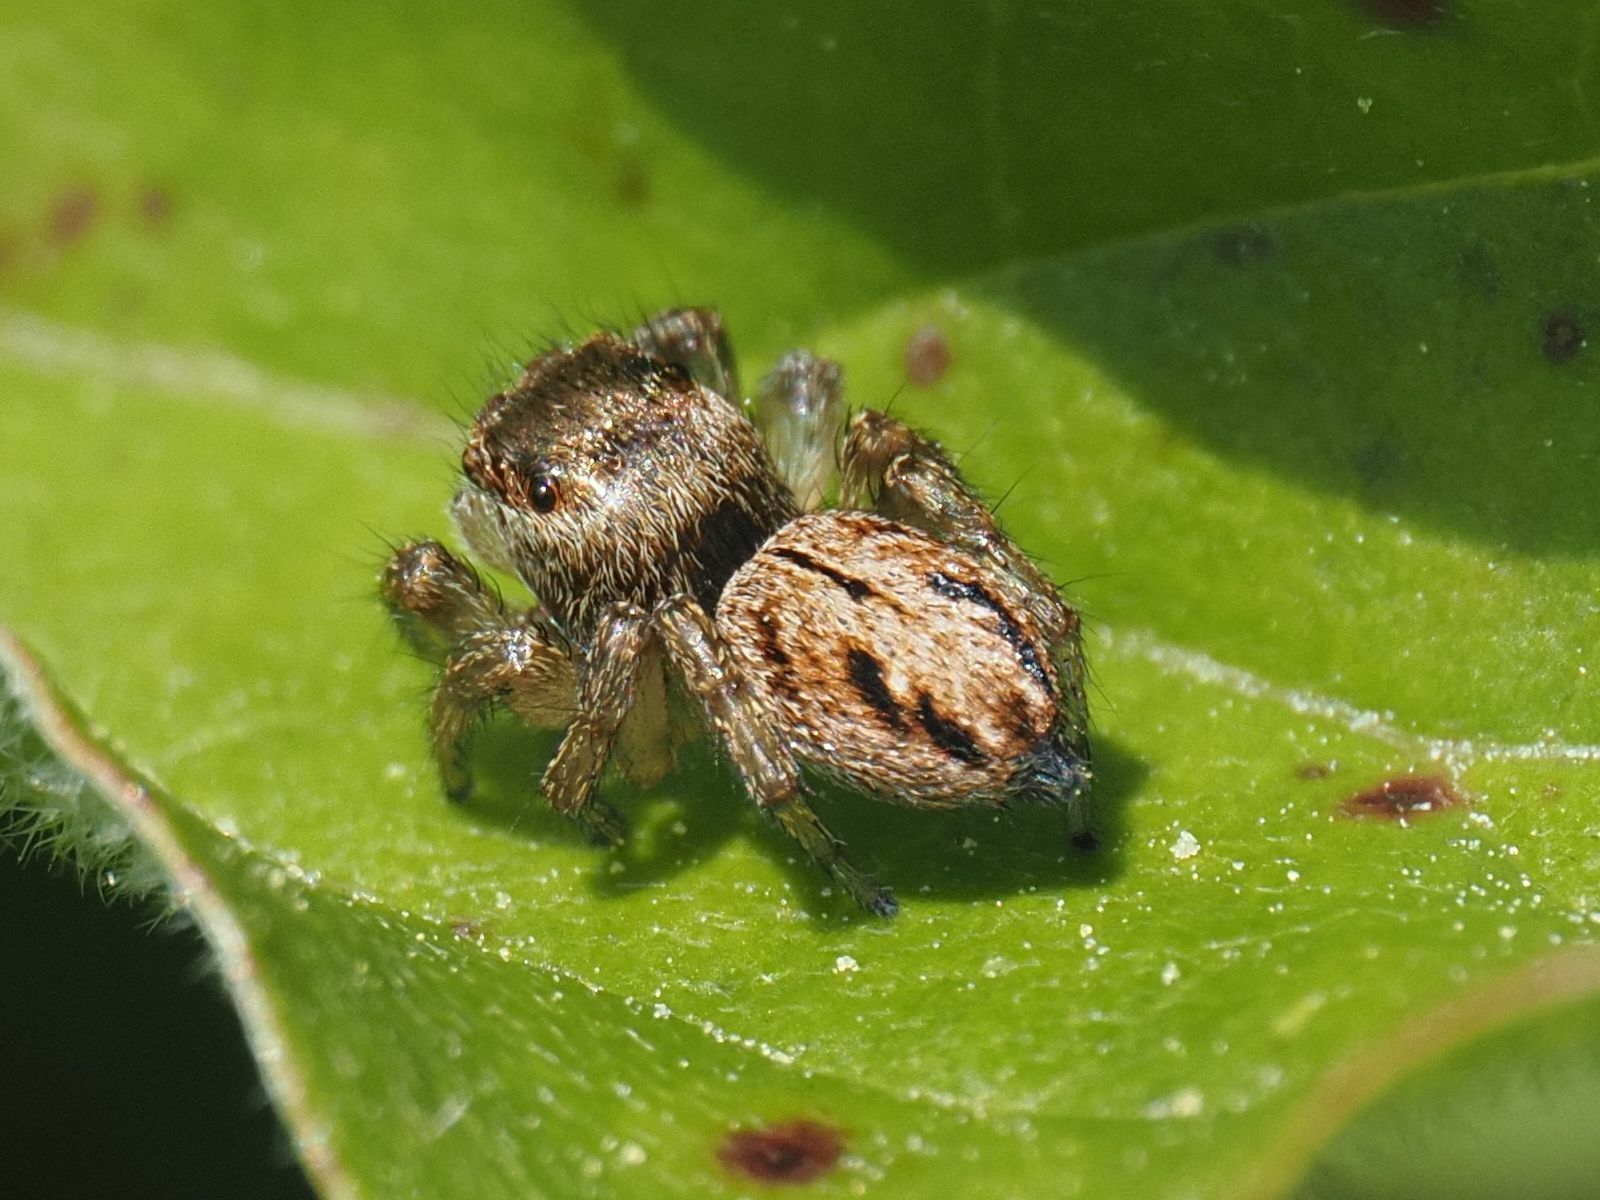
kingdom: Animalia
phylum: Arthropoda
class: Arachnida
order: Araneae
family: Salticidae
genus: Evarcha
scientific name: Evarcha arcuata
